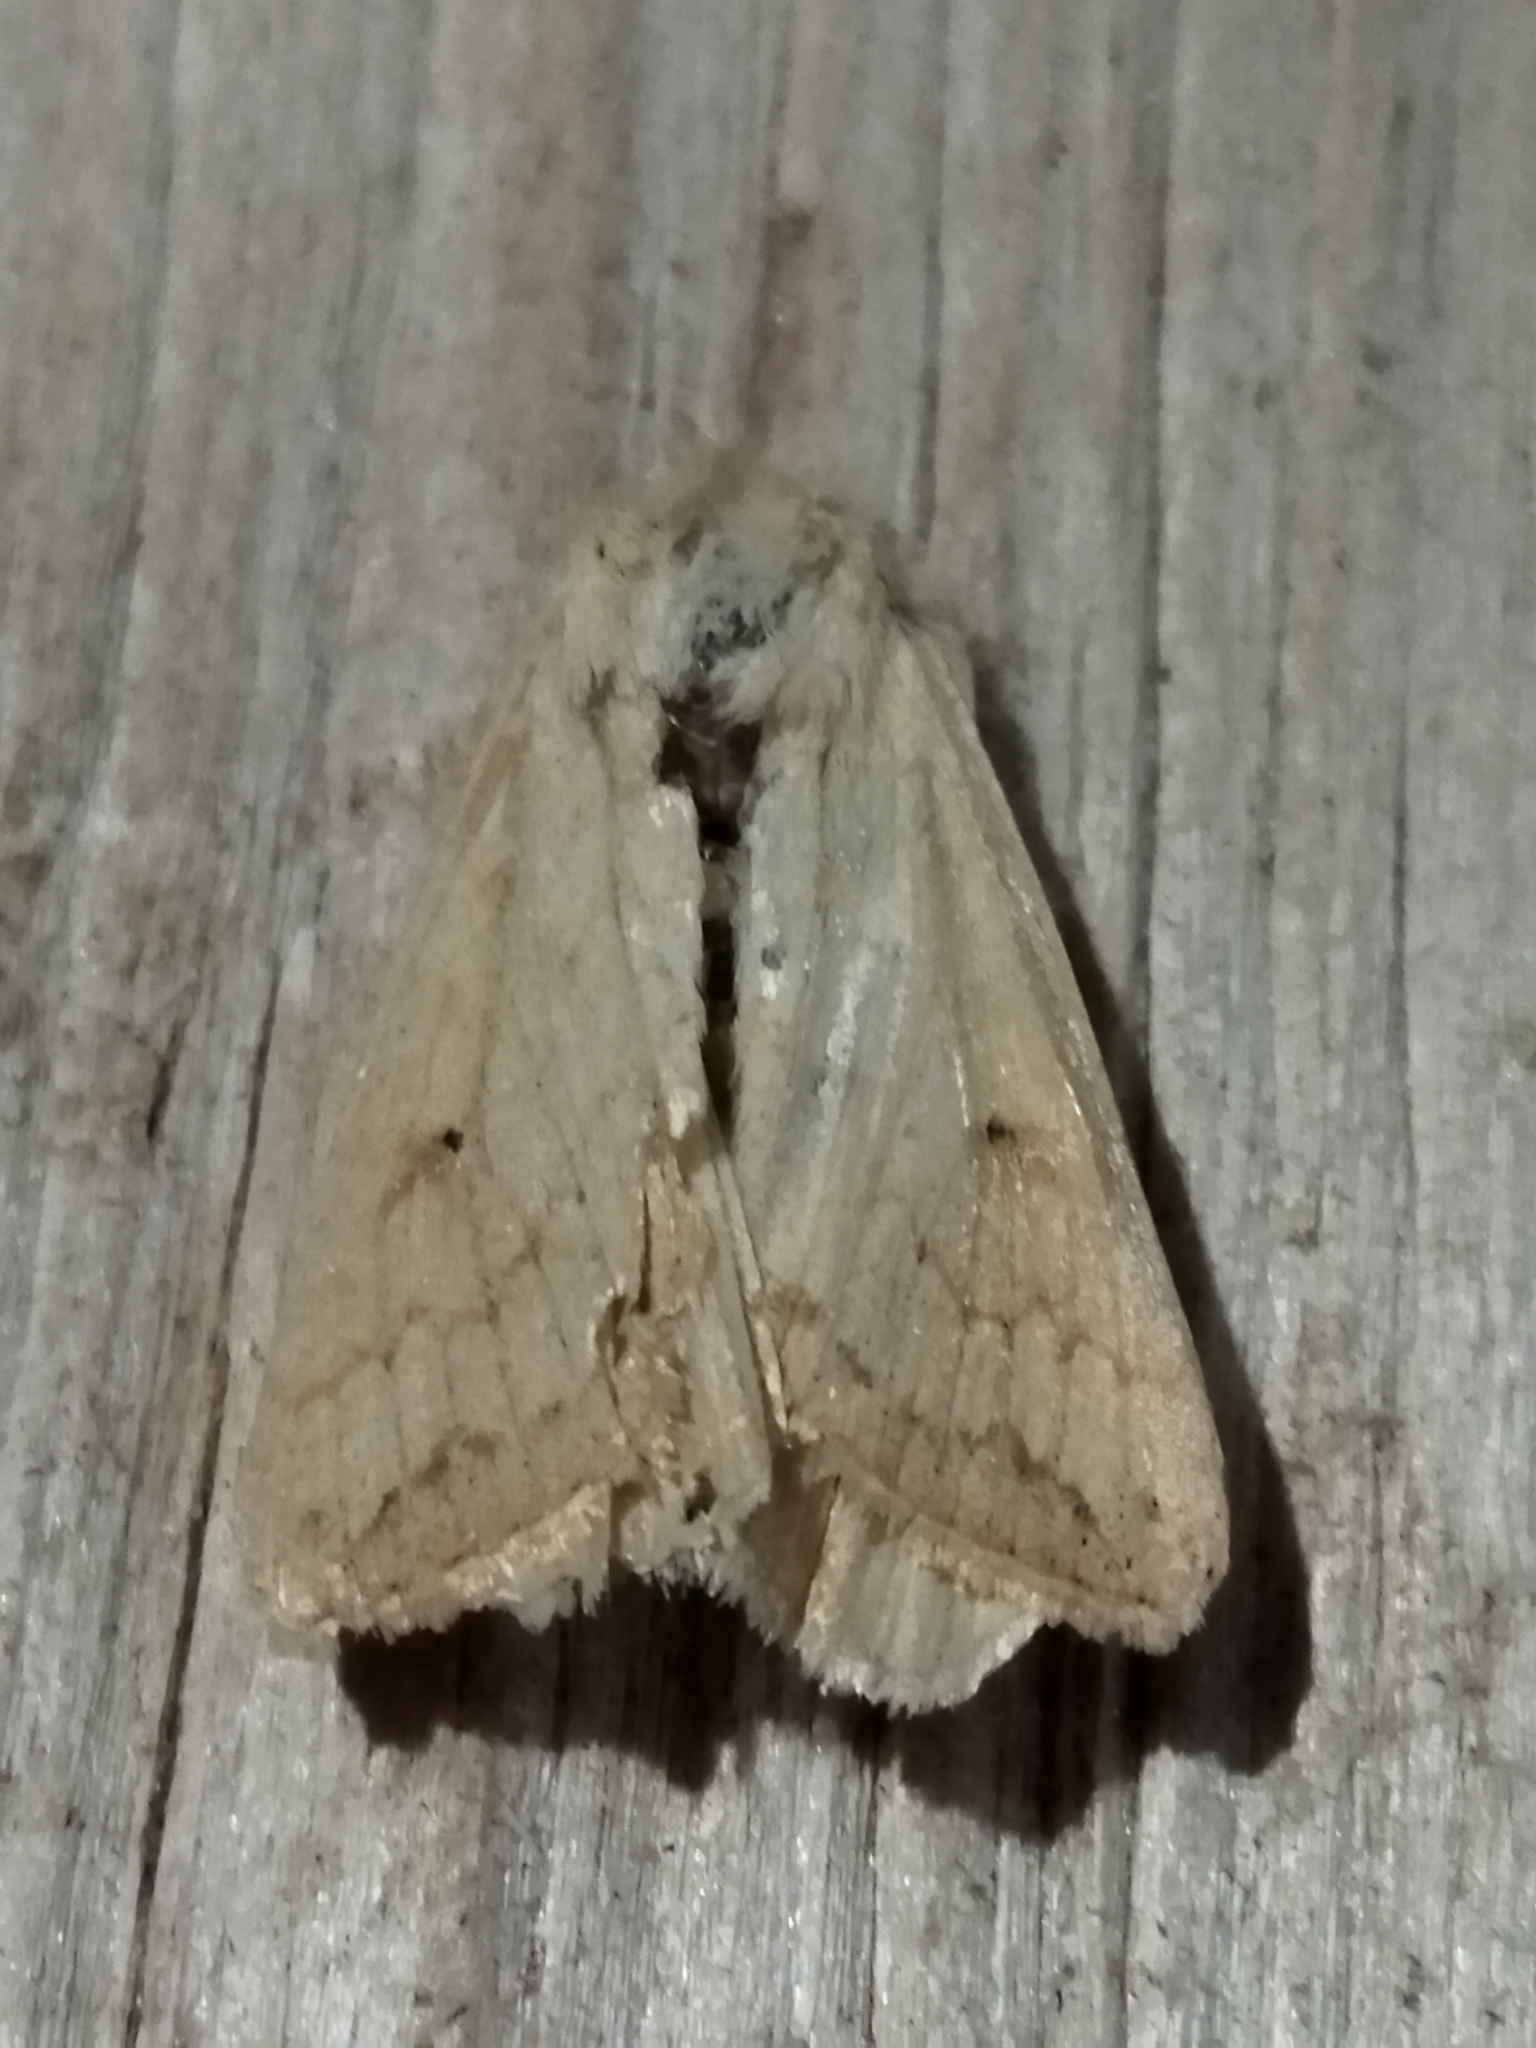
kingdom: Animalia
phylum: Arthropoda
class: Insecta
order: Lepidoptera
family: Noctuidae
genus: Mythimna
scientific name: Mythimna vitellina
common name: Delicate
